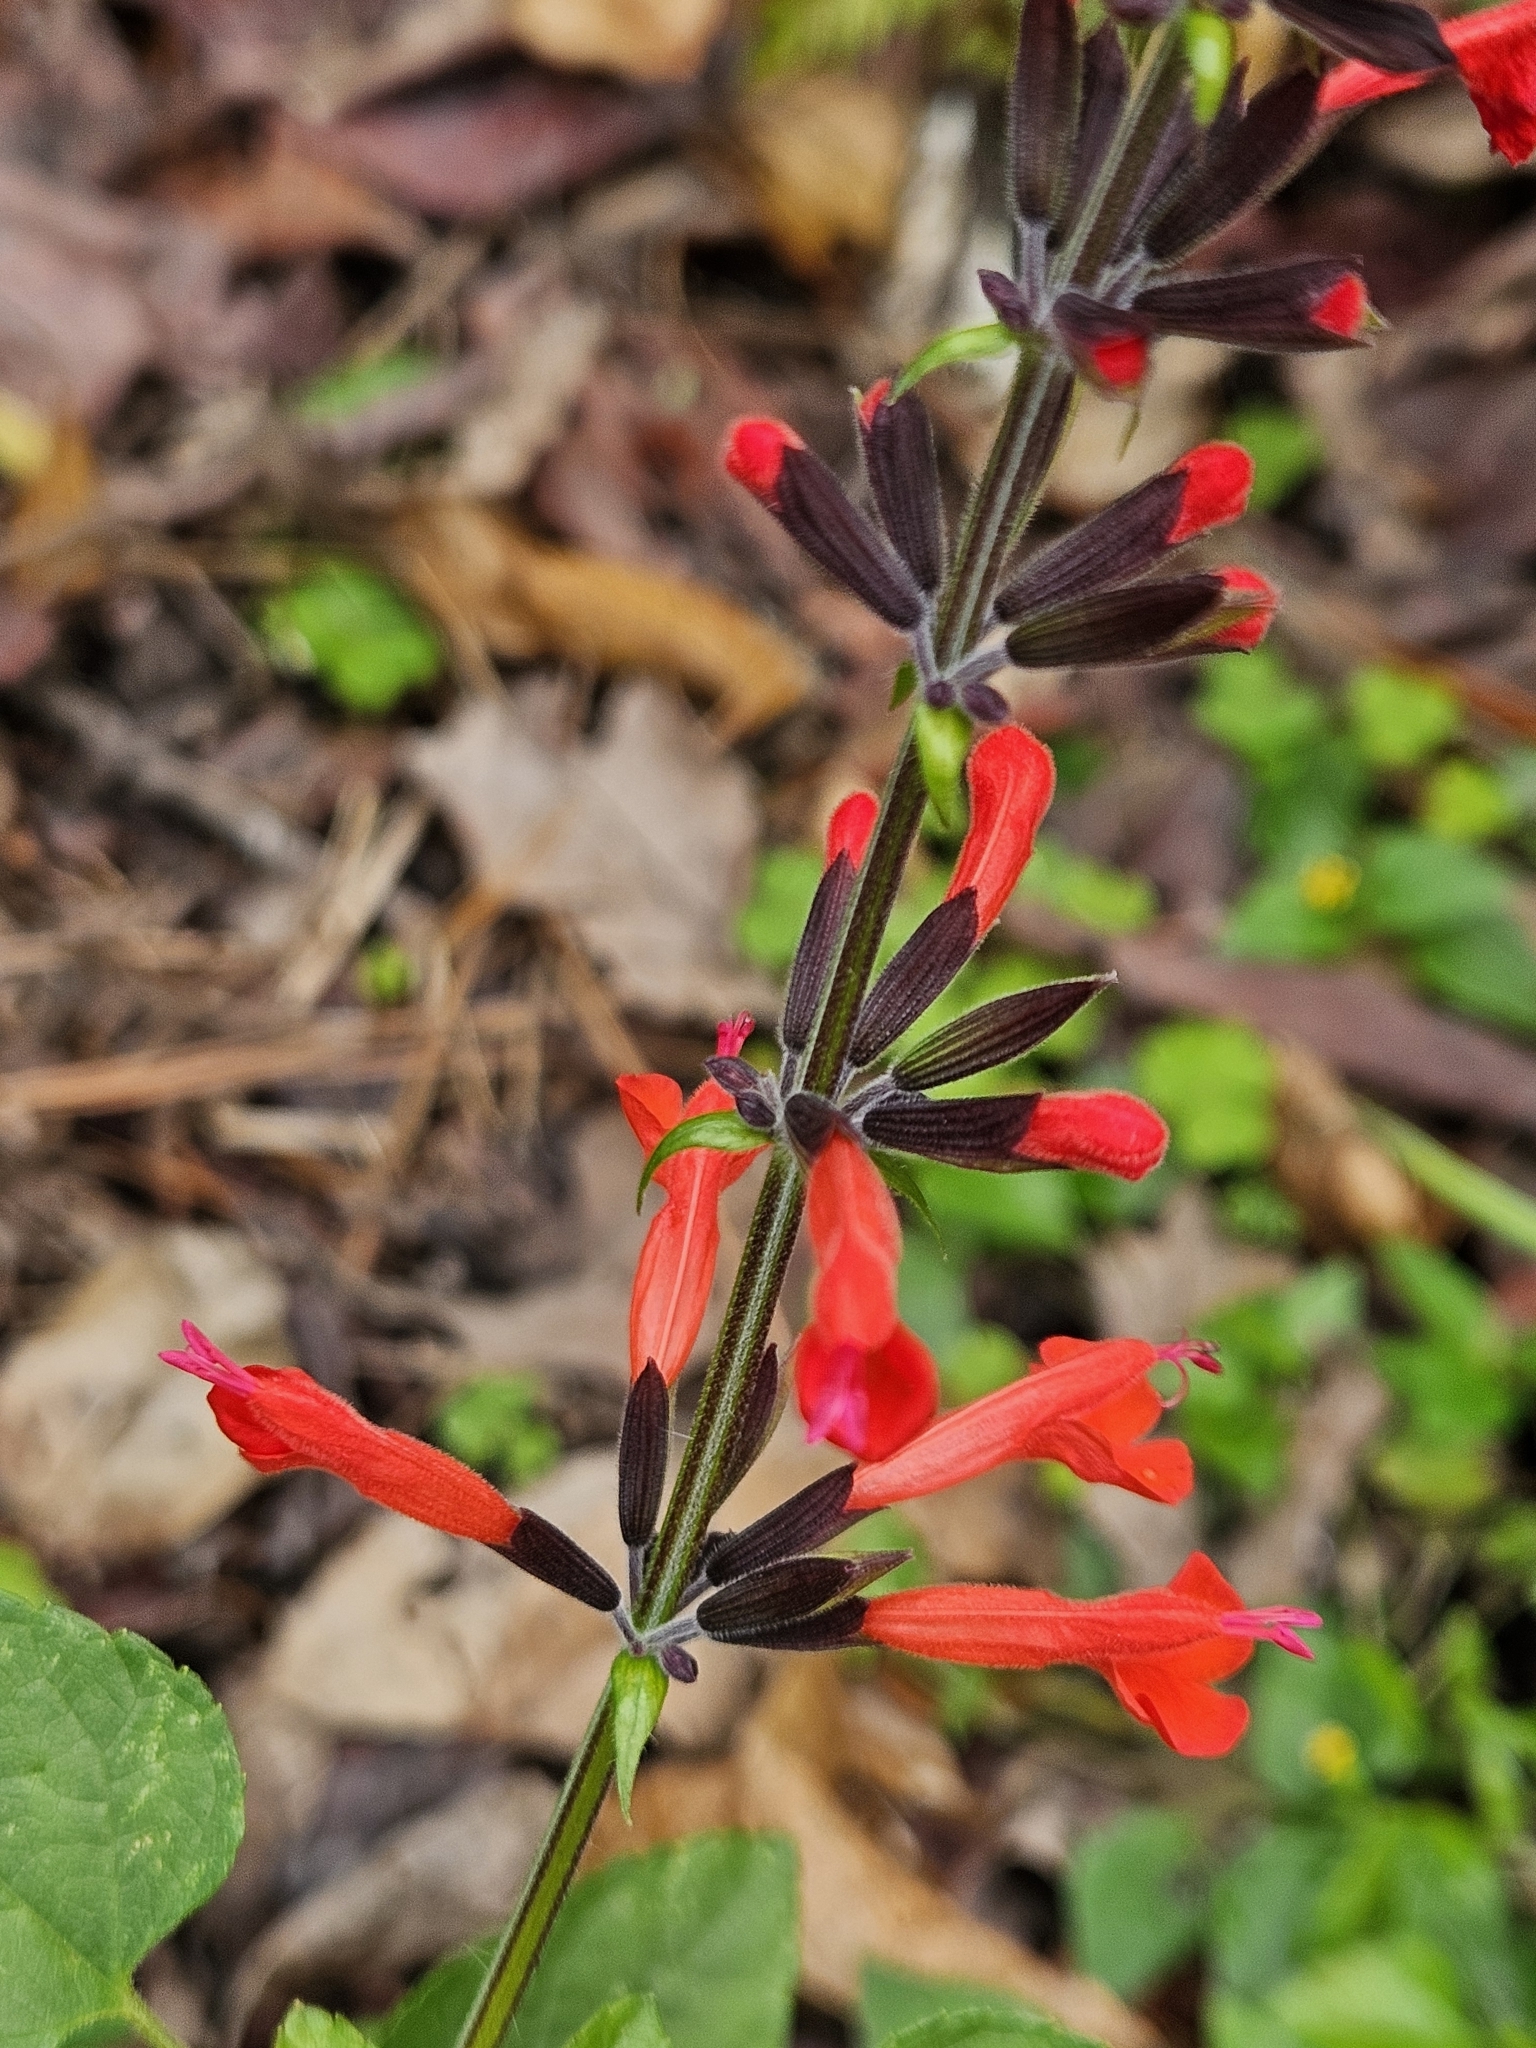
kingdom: Plantae
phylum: Tracheophyta
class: Magnoliopsida
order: Lamiales
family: Lamiaceae
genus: Salvia
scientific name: Salvia coccinea
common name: Blood sage
